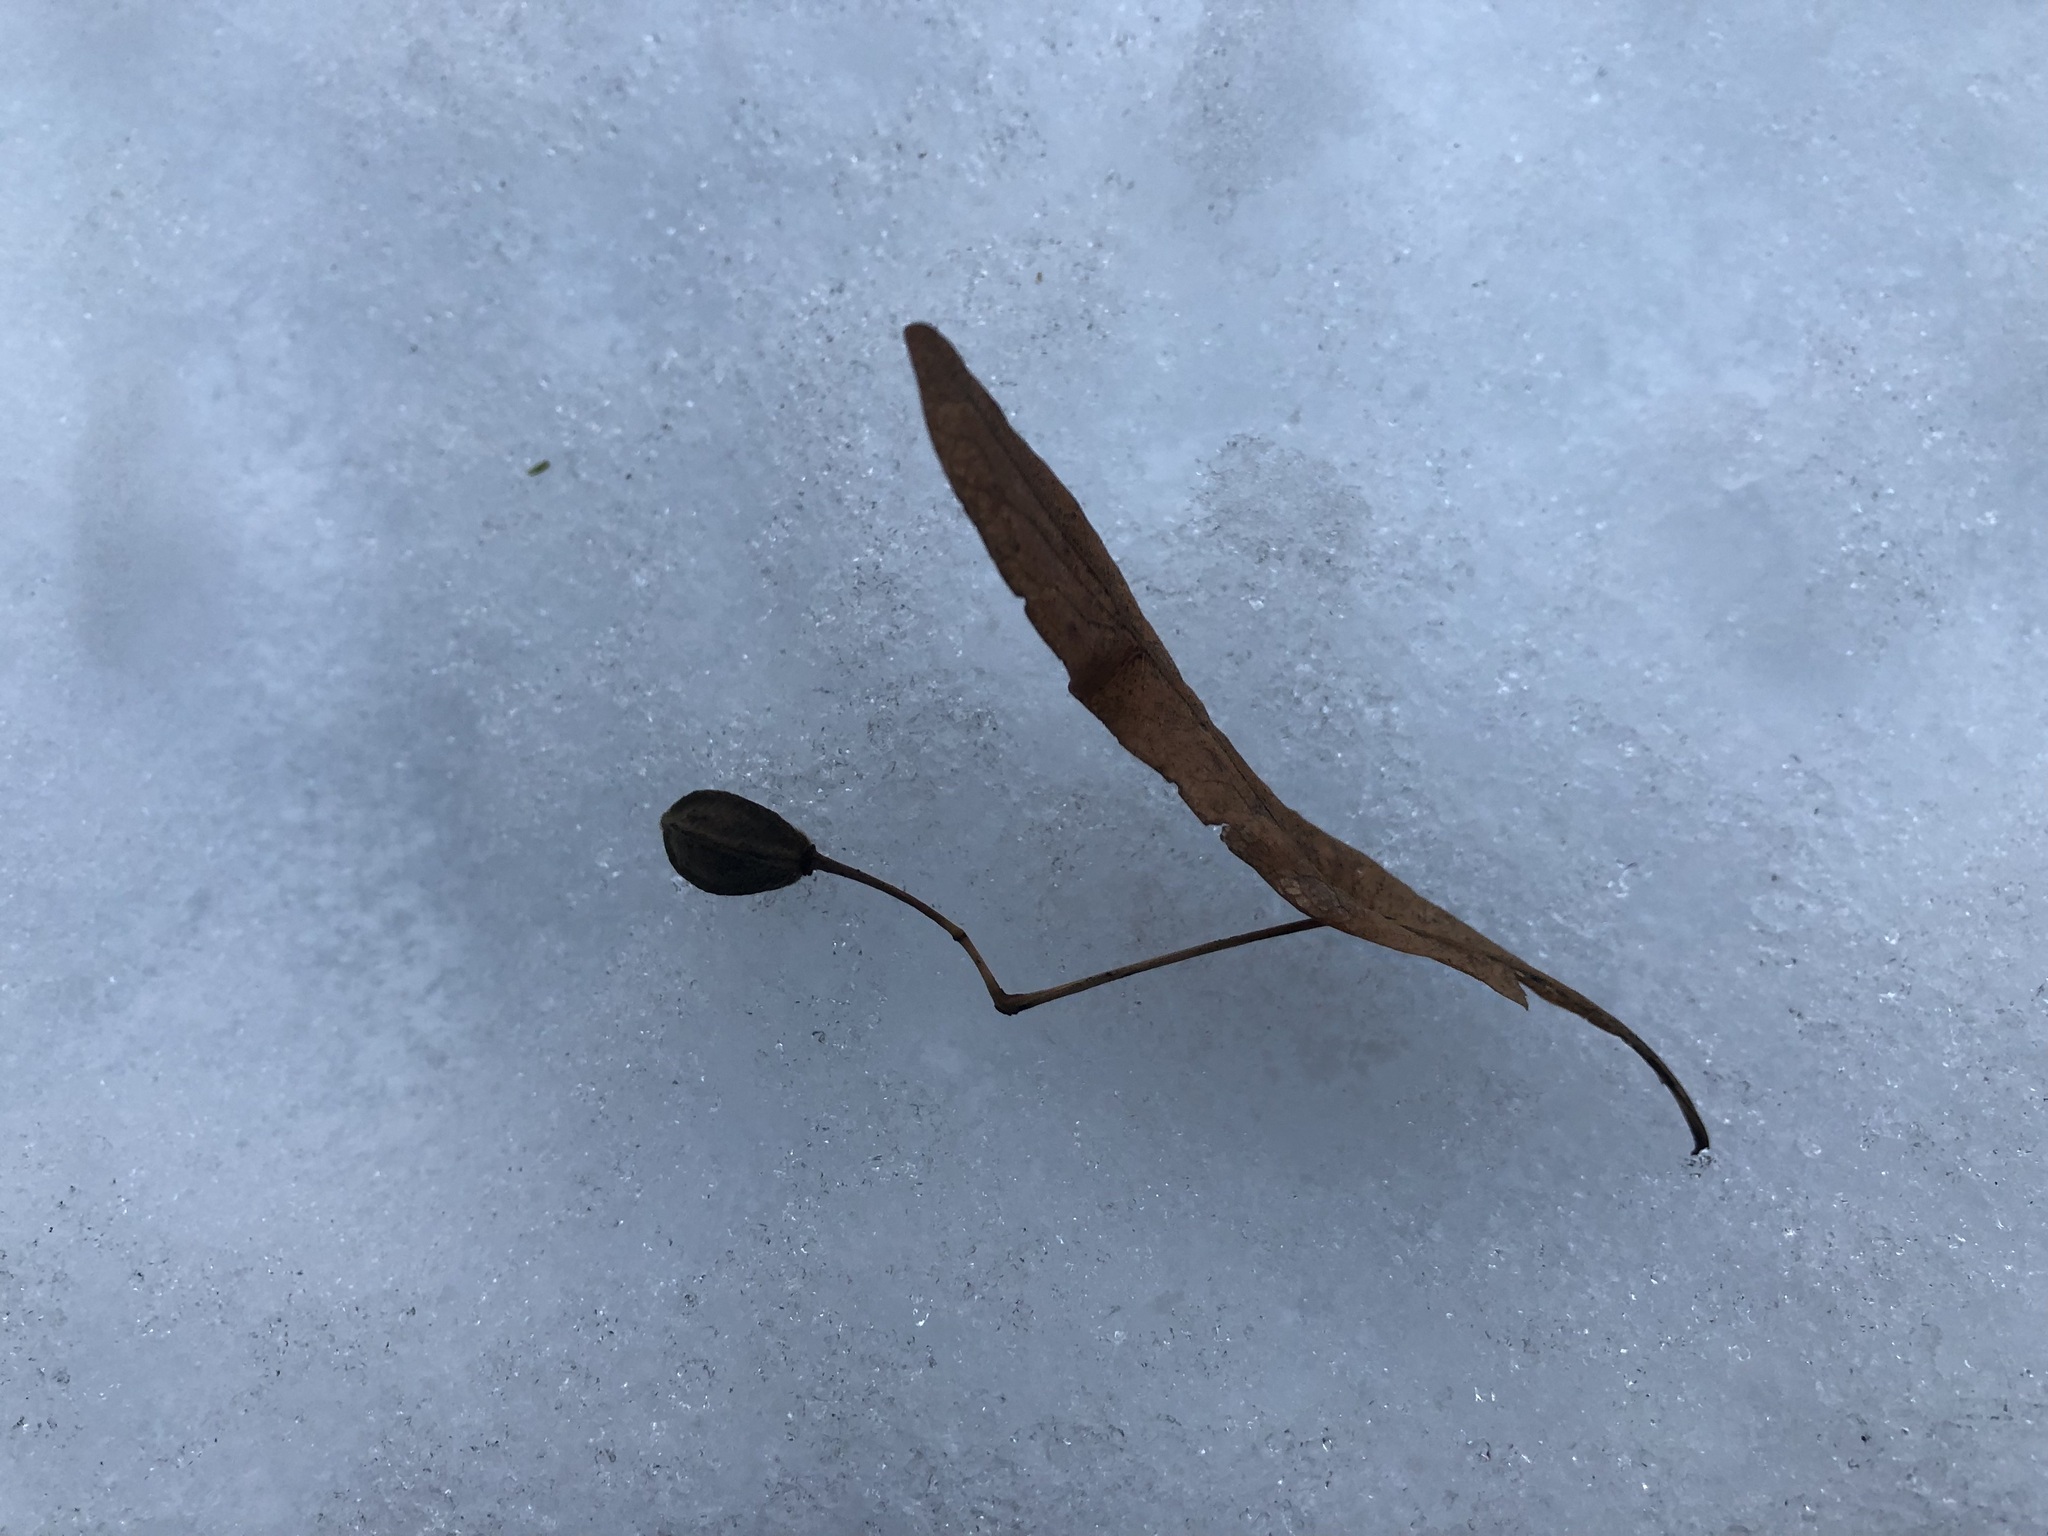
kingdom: Plantae
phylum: Tracheophyta
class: Magnoliopsida
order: Malvales
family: Malvaceae
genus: Tilia
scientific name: Tilia platyphyllos
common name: Large-leaved lime
